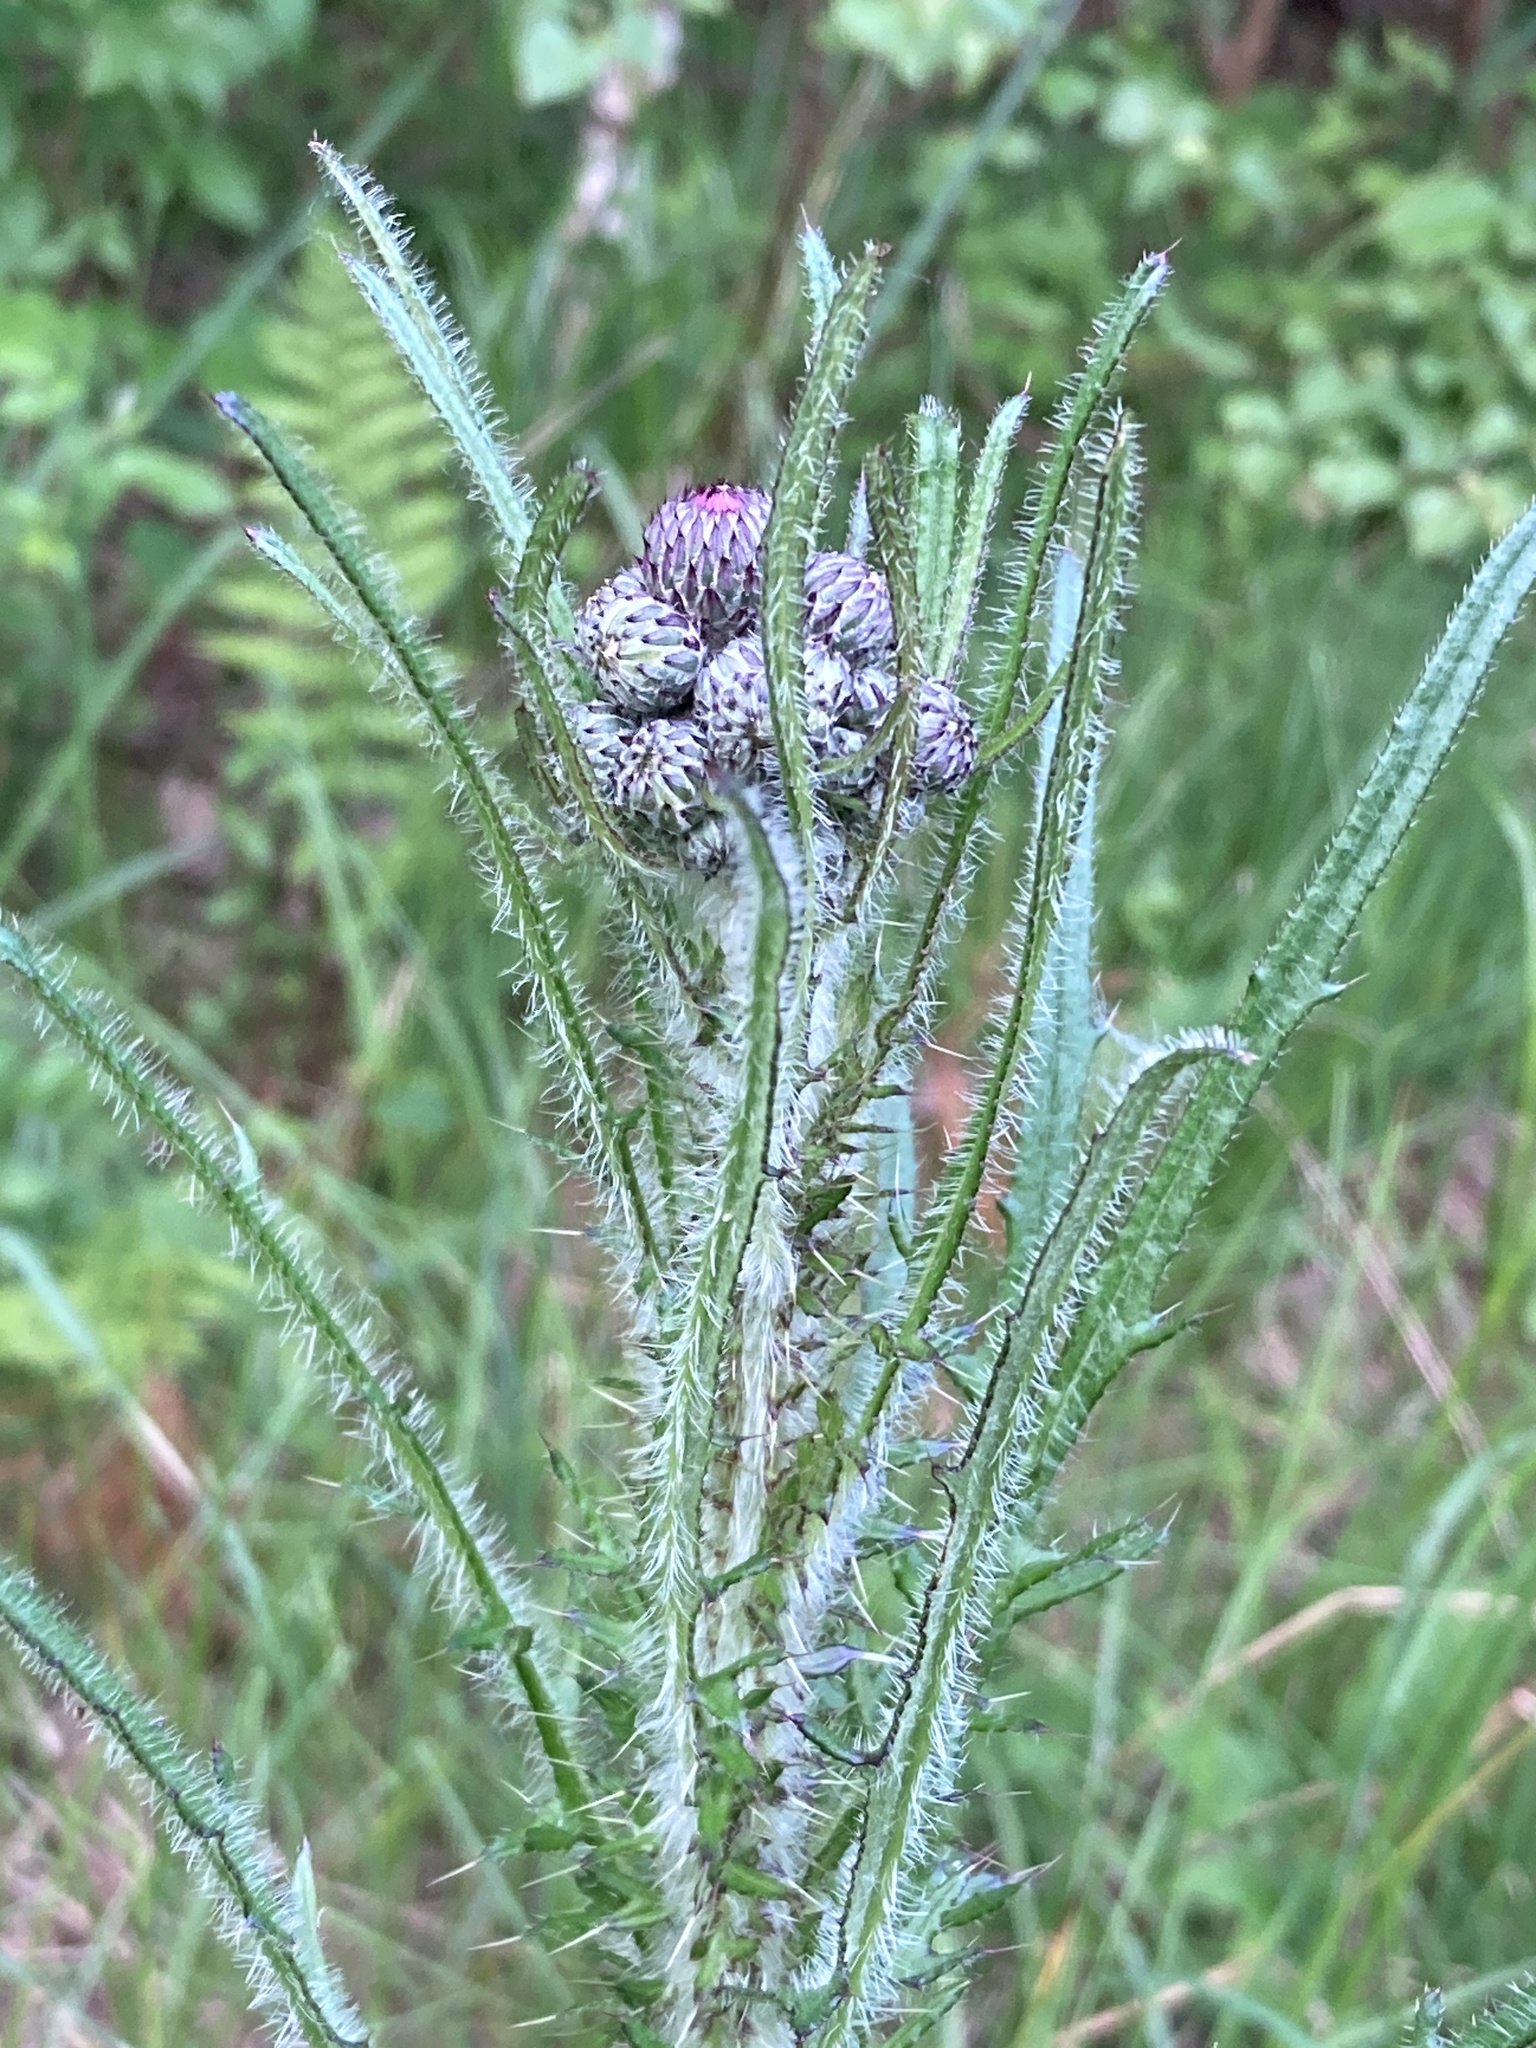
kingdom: Plantae
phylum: Tracheophyta
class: Magnoliopsida
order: Asterales
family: Asteraceae
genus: Cirsium
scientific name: Cirsium palustre
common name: Marsh thistle
